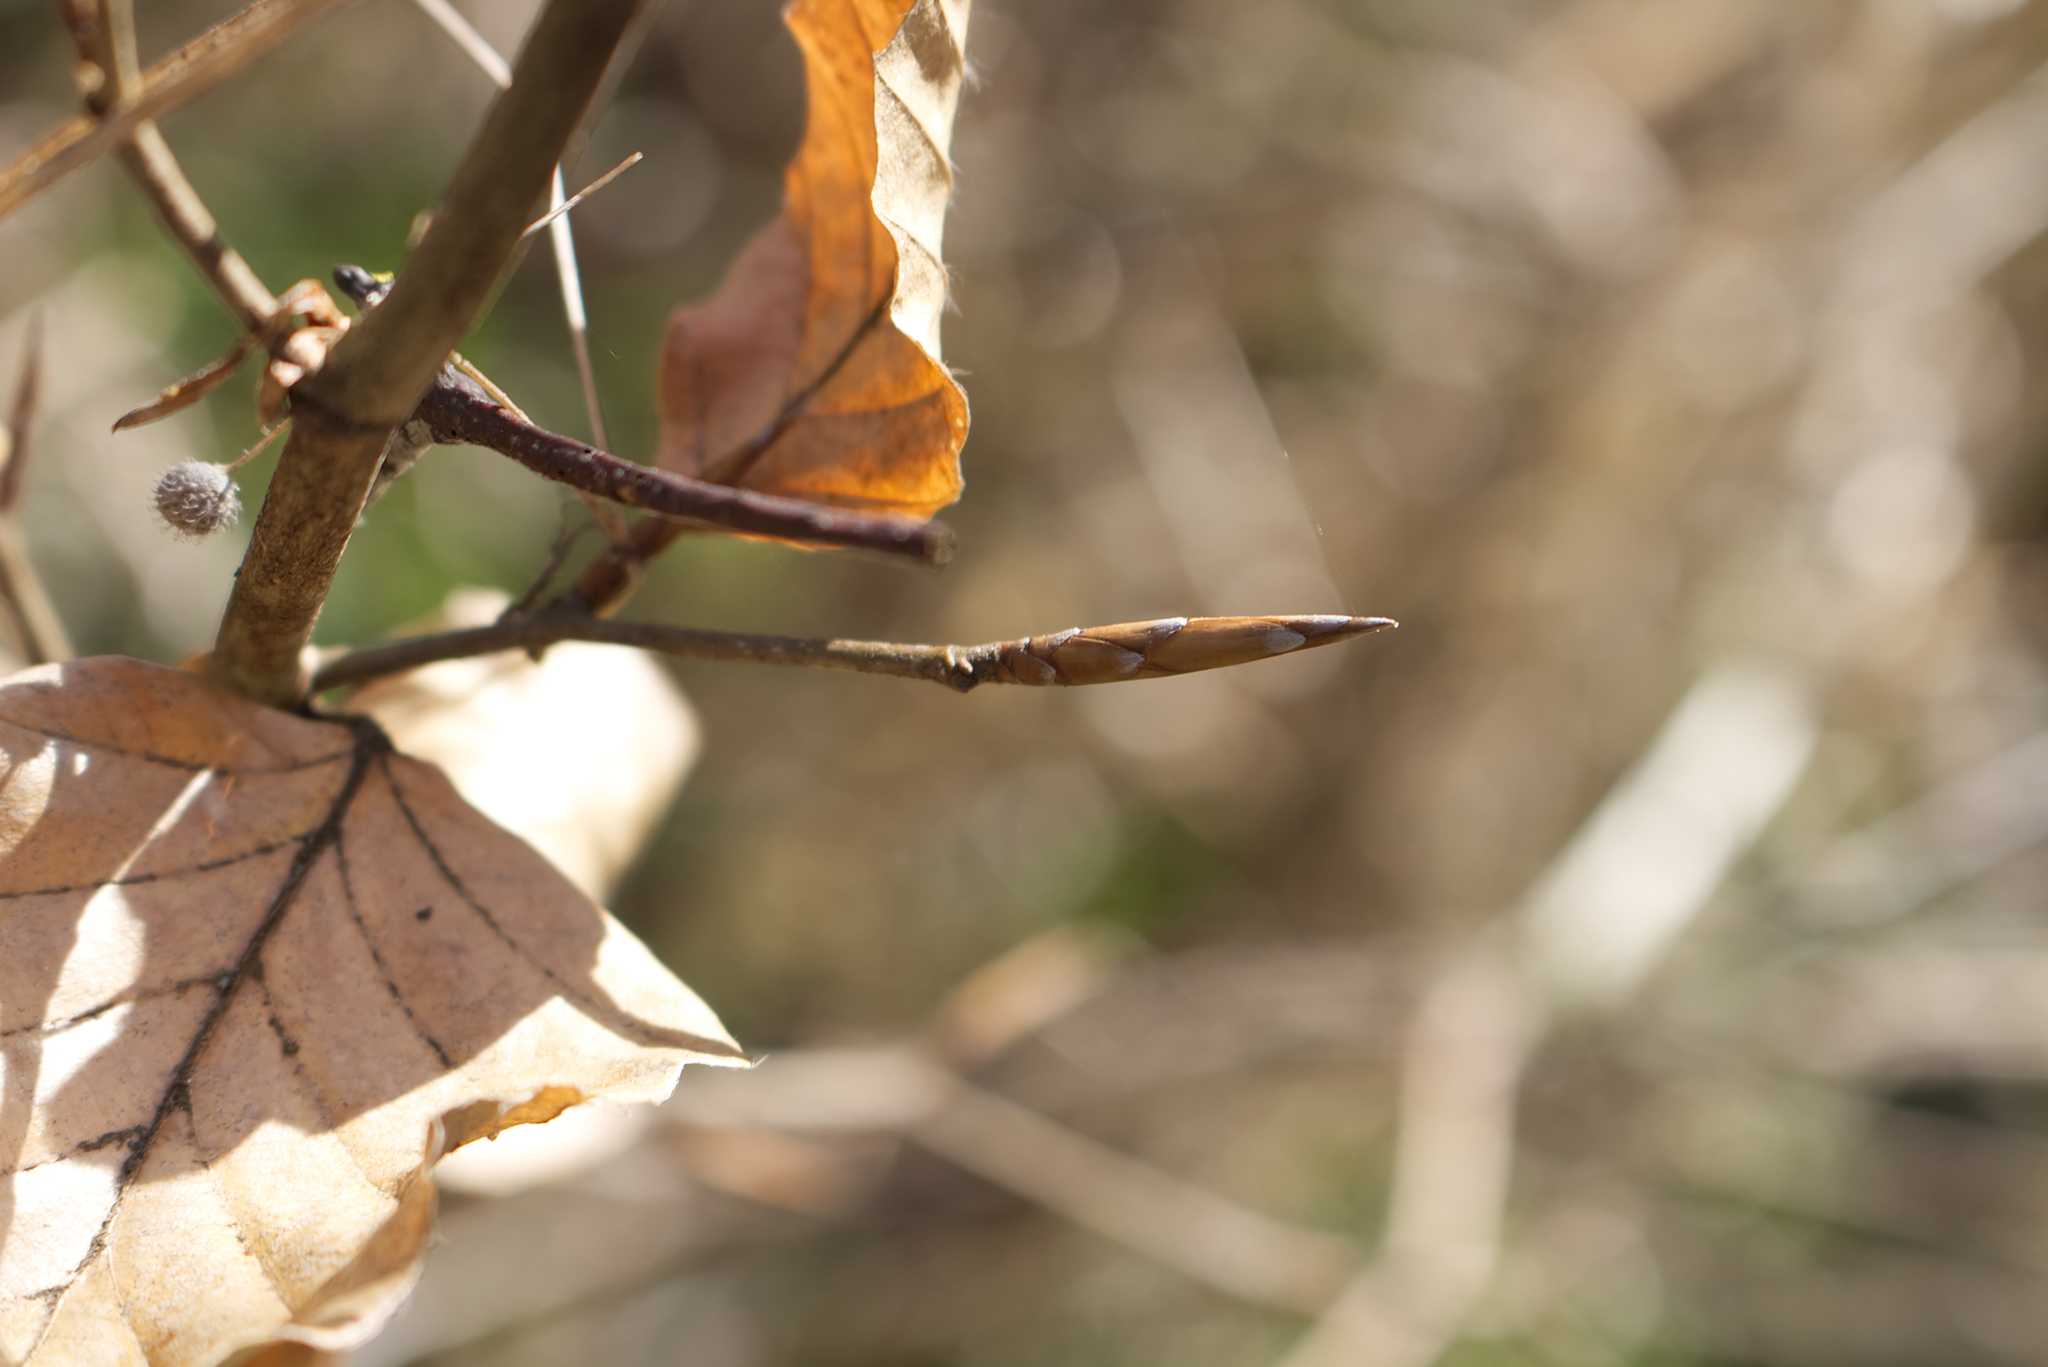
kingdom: Plantae
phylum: Tracheophyta
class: Magnoliopsida
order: Fagales
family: Fagaceae
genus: Fagus
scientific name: Fagus sylvatica
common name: Beech
